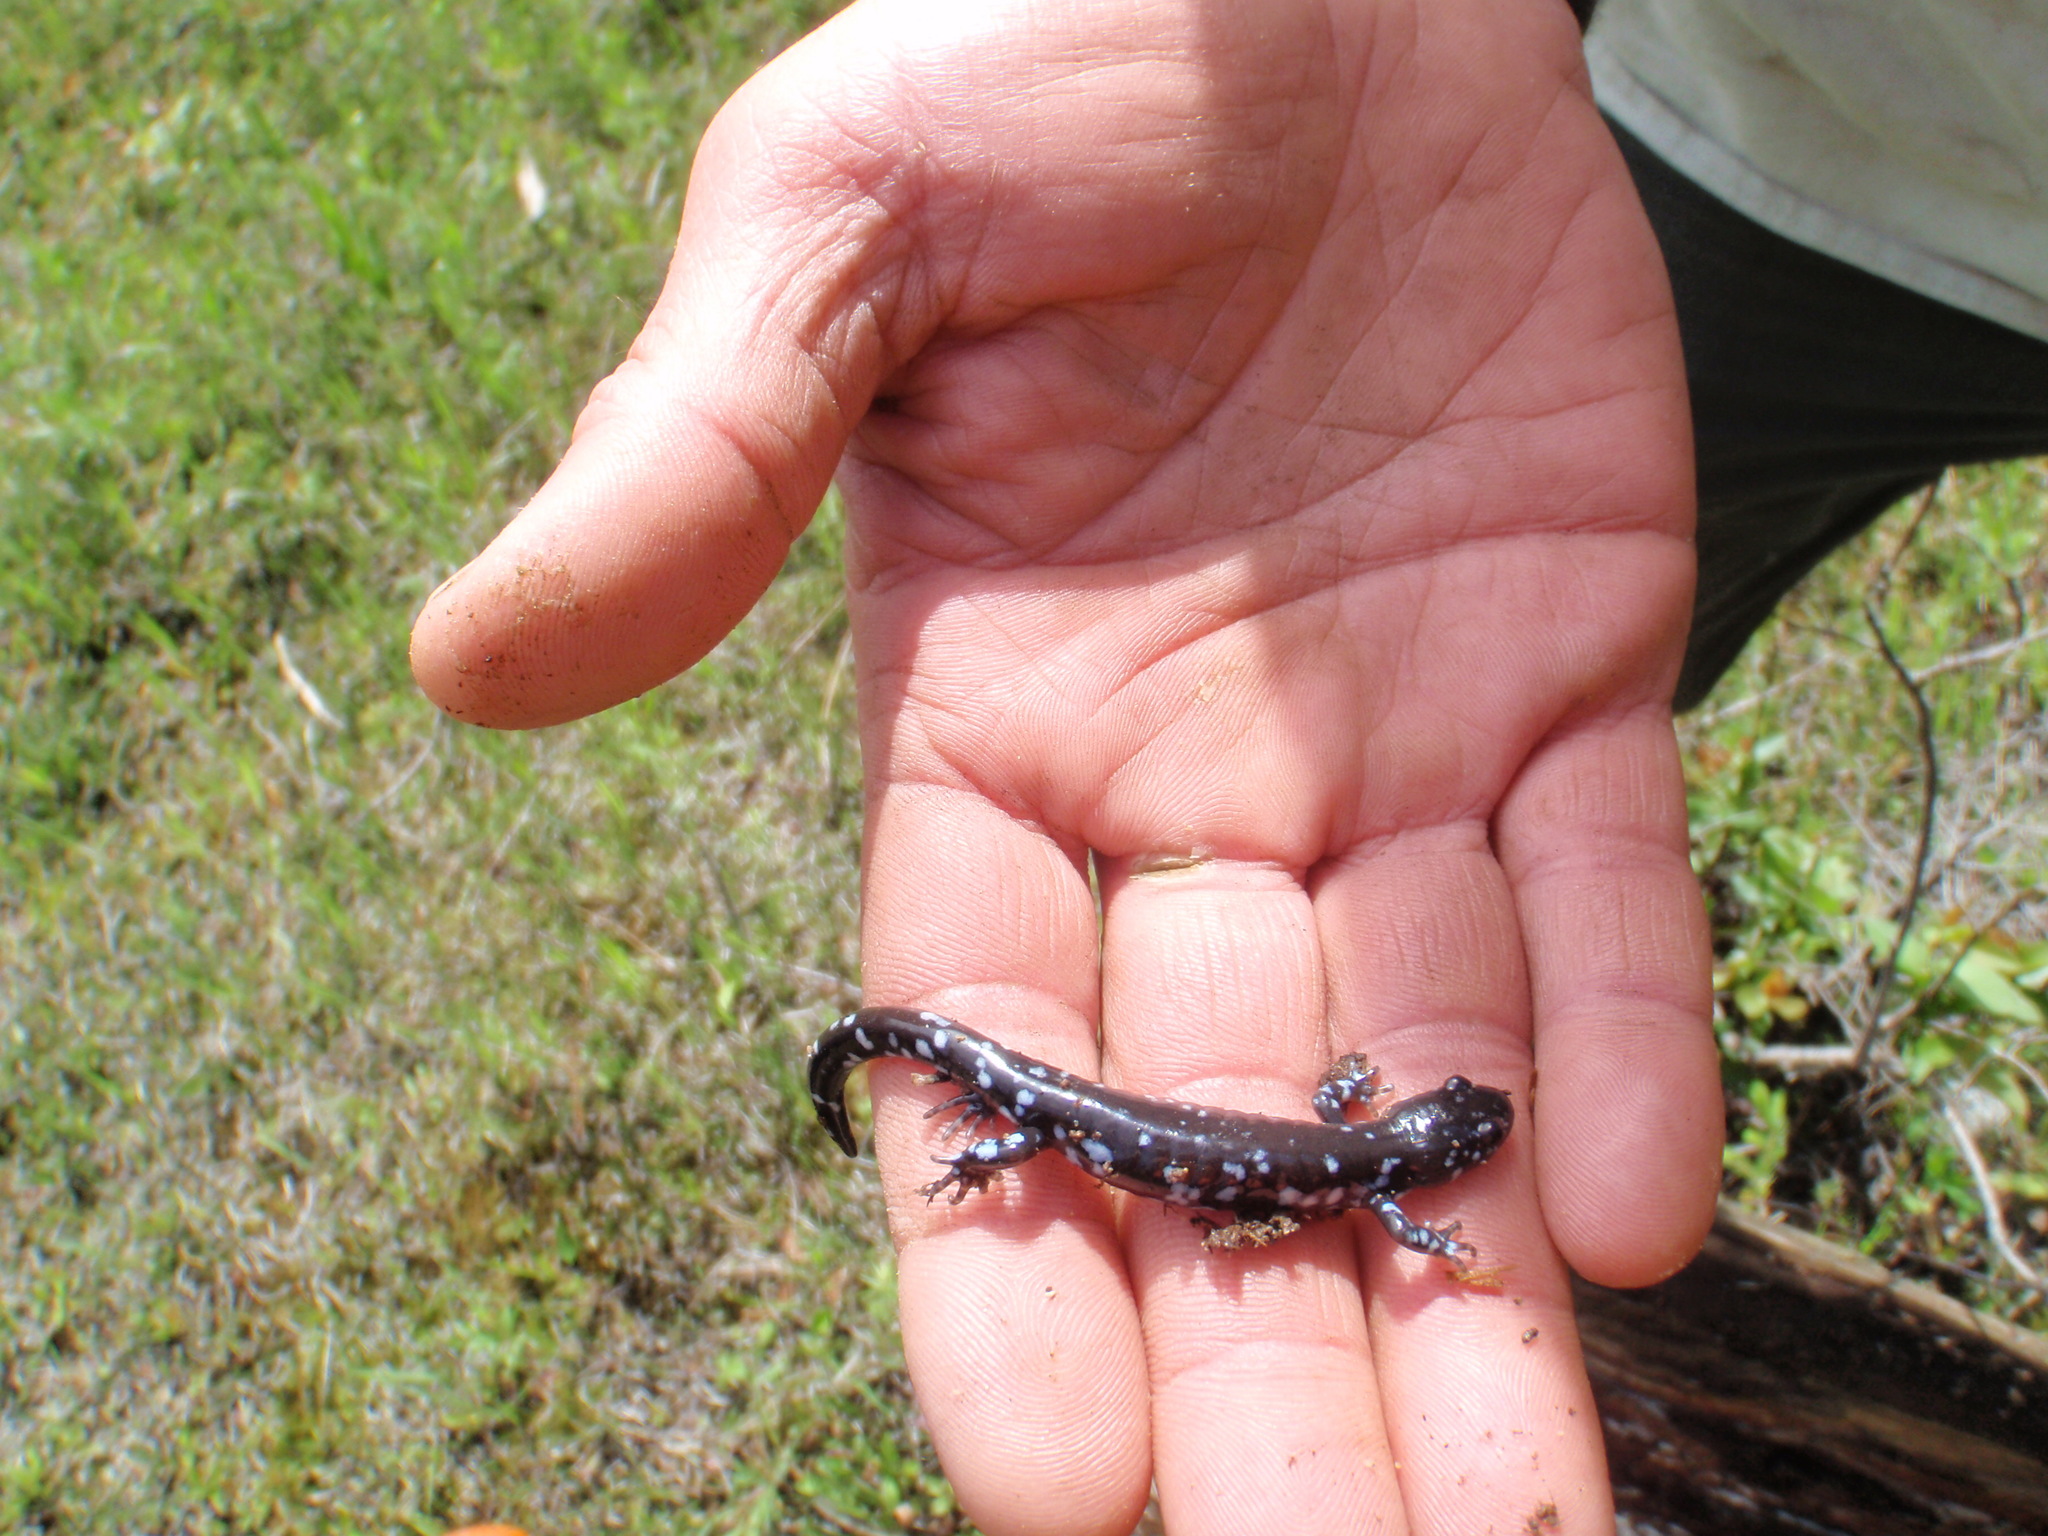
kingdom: Animalia
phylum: Chordata
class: Amphibia
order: Caudata
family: Ambystomatidae
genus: Ambystoma
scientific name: Ambystoma laterale
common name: Blue-spotted salamander
